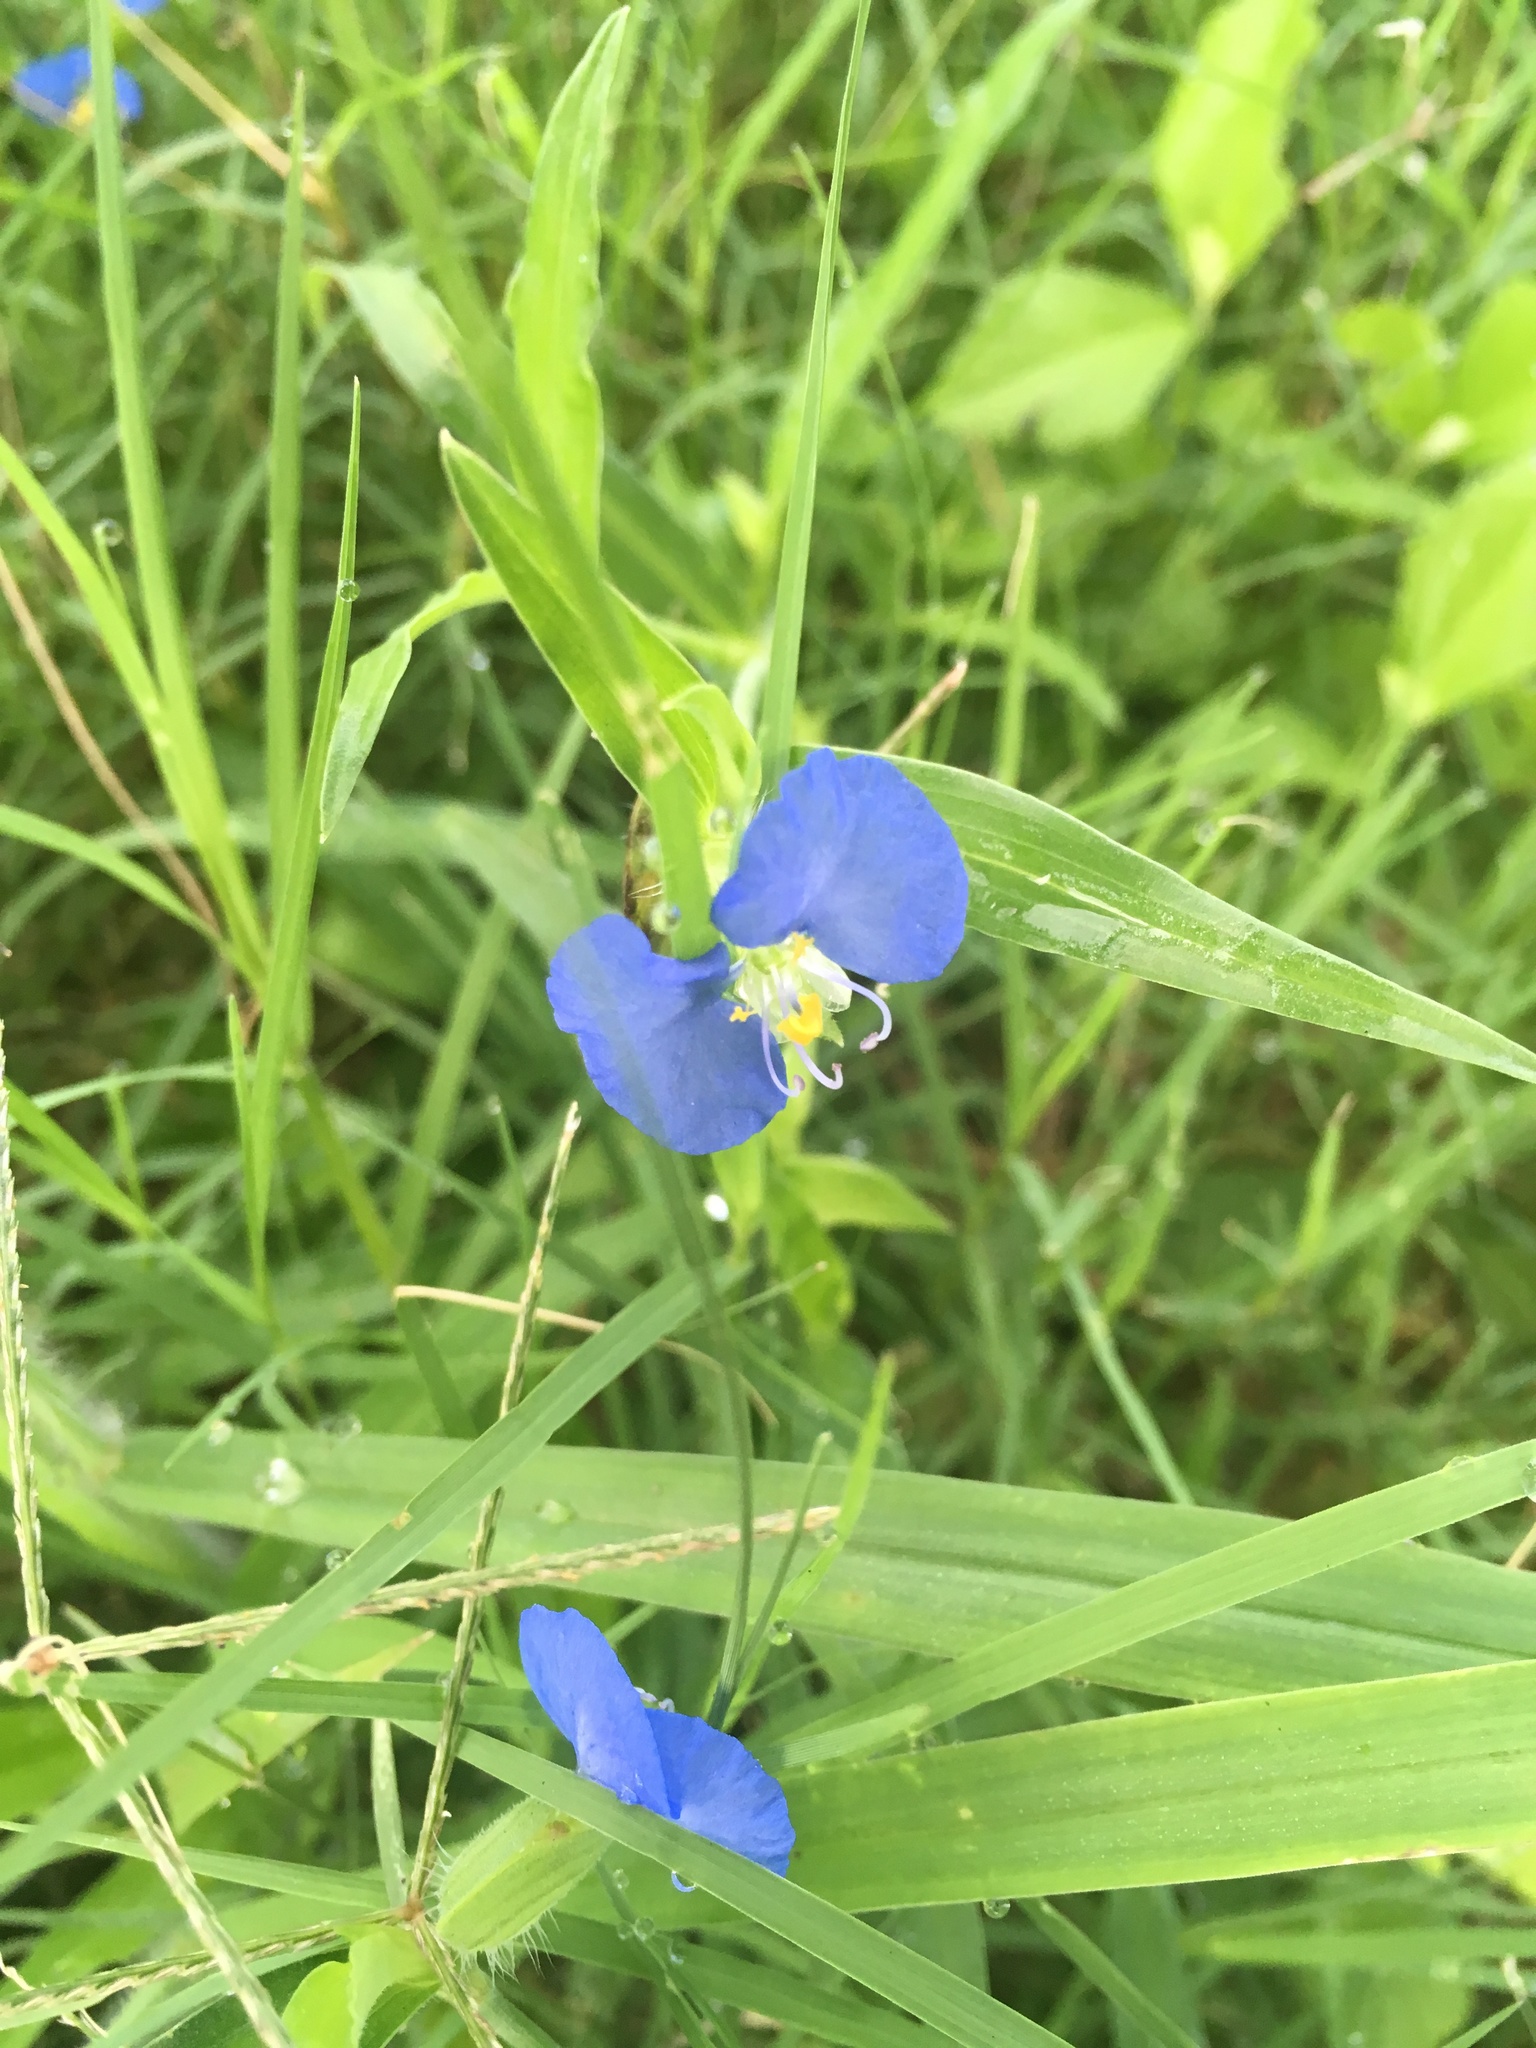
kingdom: Plantae
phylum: Tracheophyta
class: Liliopsida
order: Commelinales
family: Commelinaceae
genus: Commelina
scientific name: Commelina erecta
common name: Blousel blommetjie
